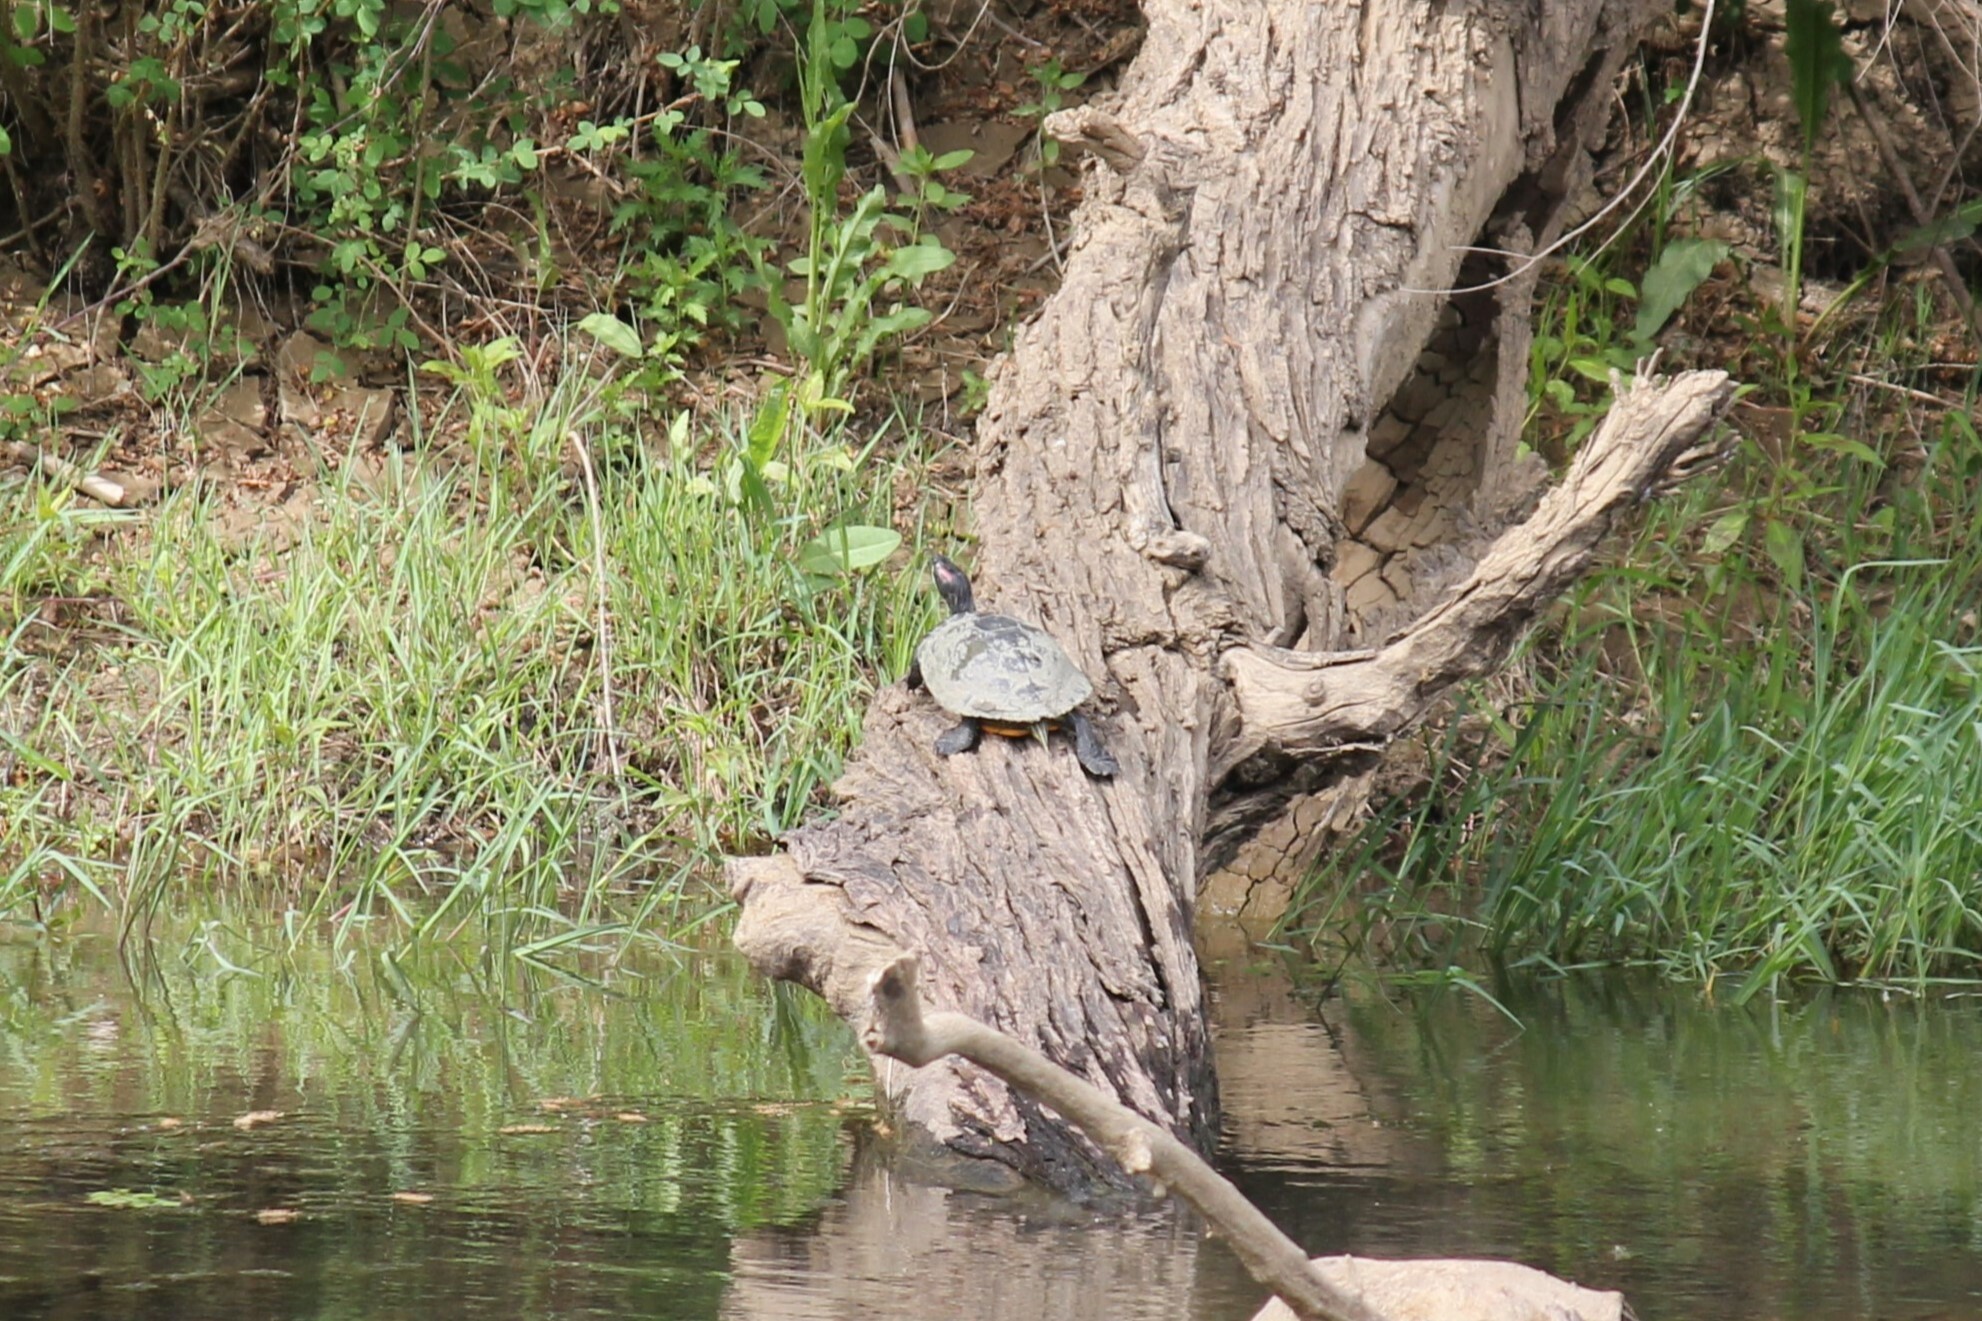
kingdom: Animalia
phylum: Chordata
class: Testudines
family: Emydidae
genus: Trachemys
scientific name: Trachemys scripta
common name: Slider
